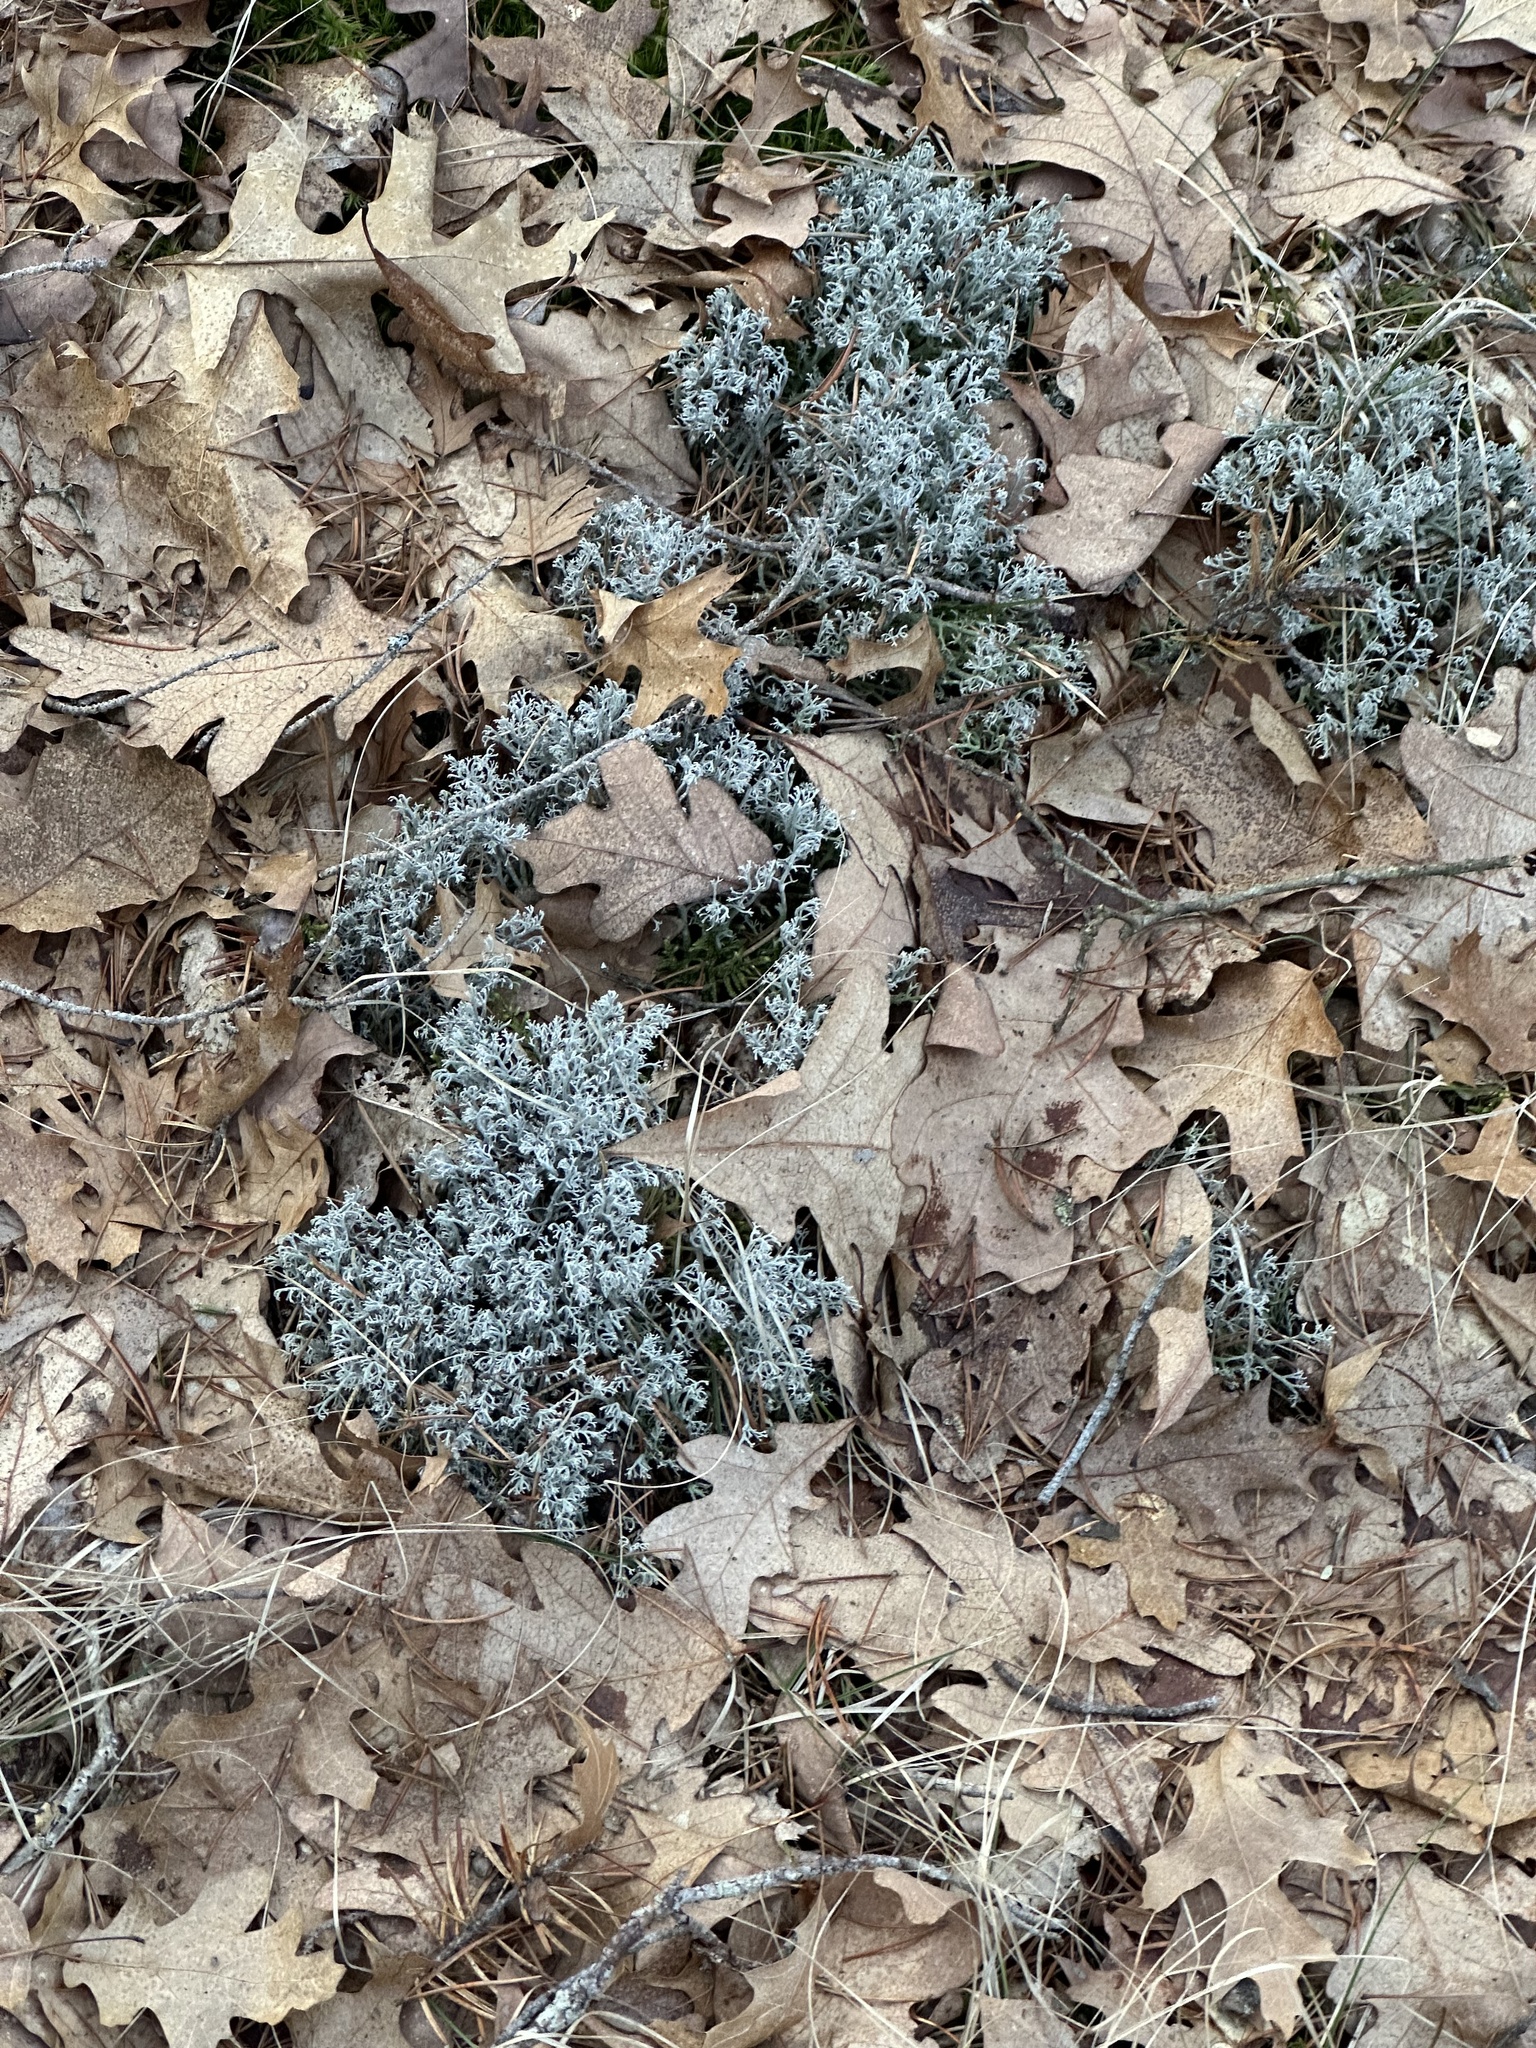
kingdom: Fungi
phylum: Ascomycota
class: Lecanoromycetes
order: Lecanorales
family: Cladoniaceae
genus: Cladonia
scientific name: Cladonia rangiferina
